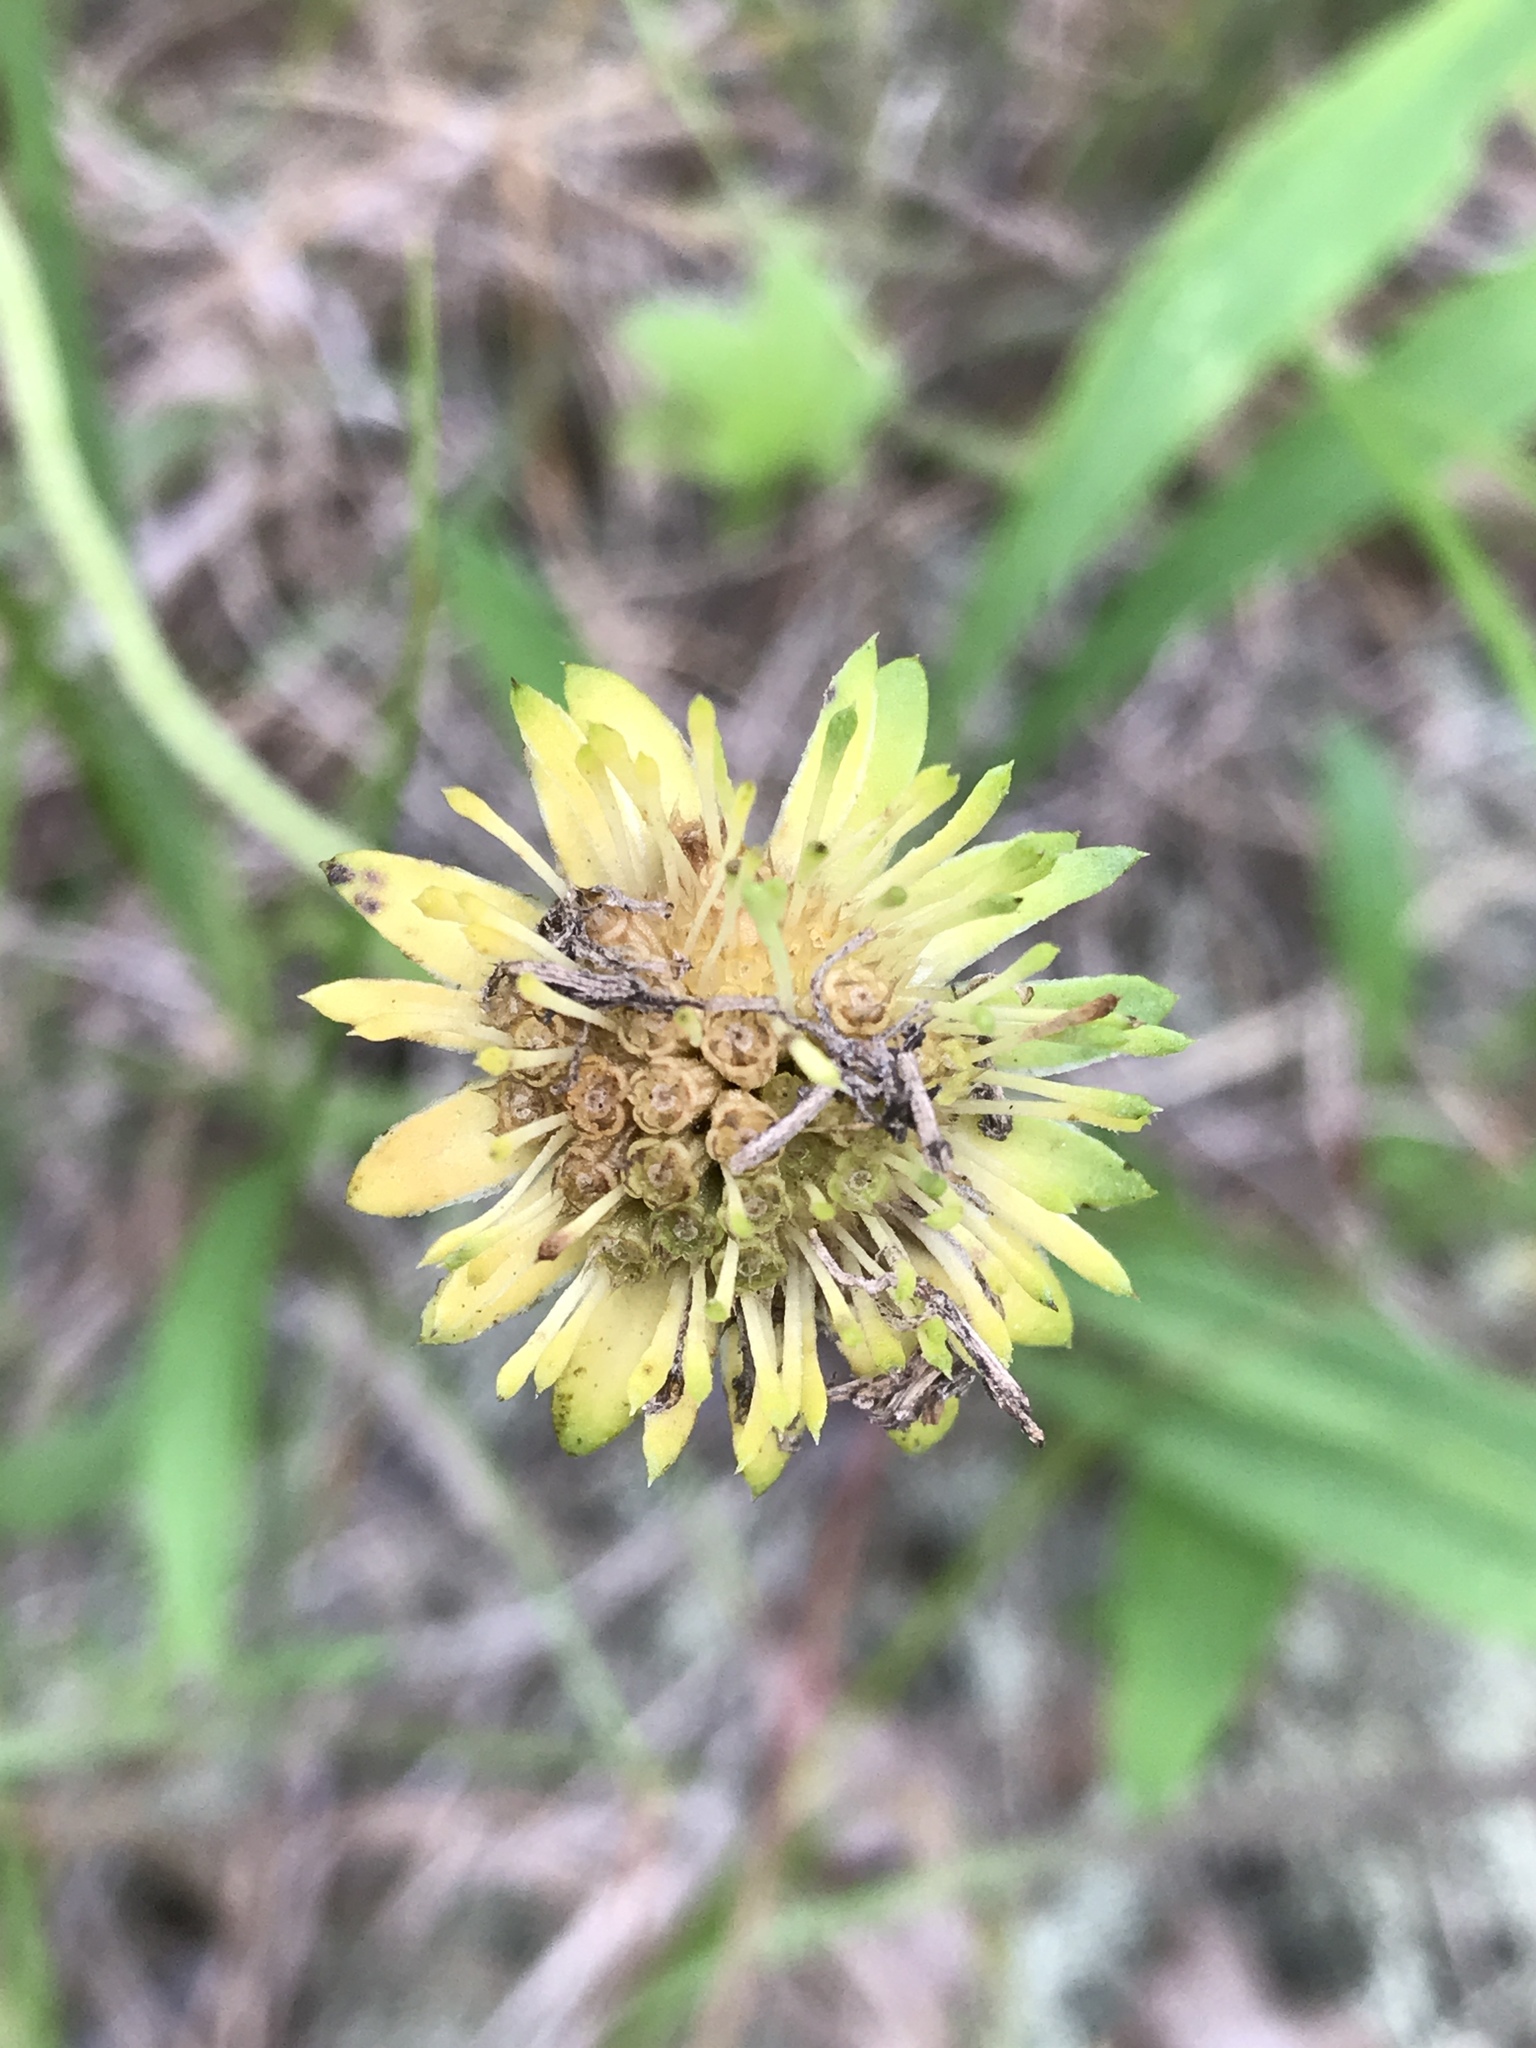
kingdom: Plantae
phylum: Tracheophyta
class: Magnoliopsida
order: Asterales
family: Asteraceae
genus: Marshallia
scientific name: Marshallia obovata
